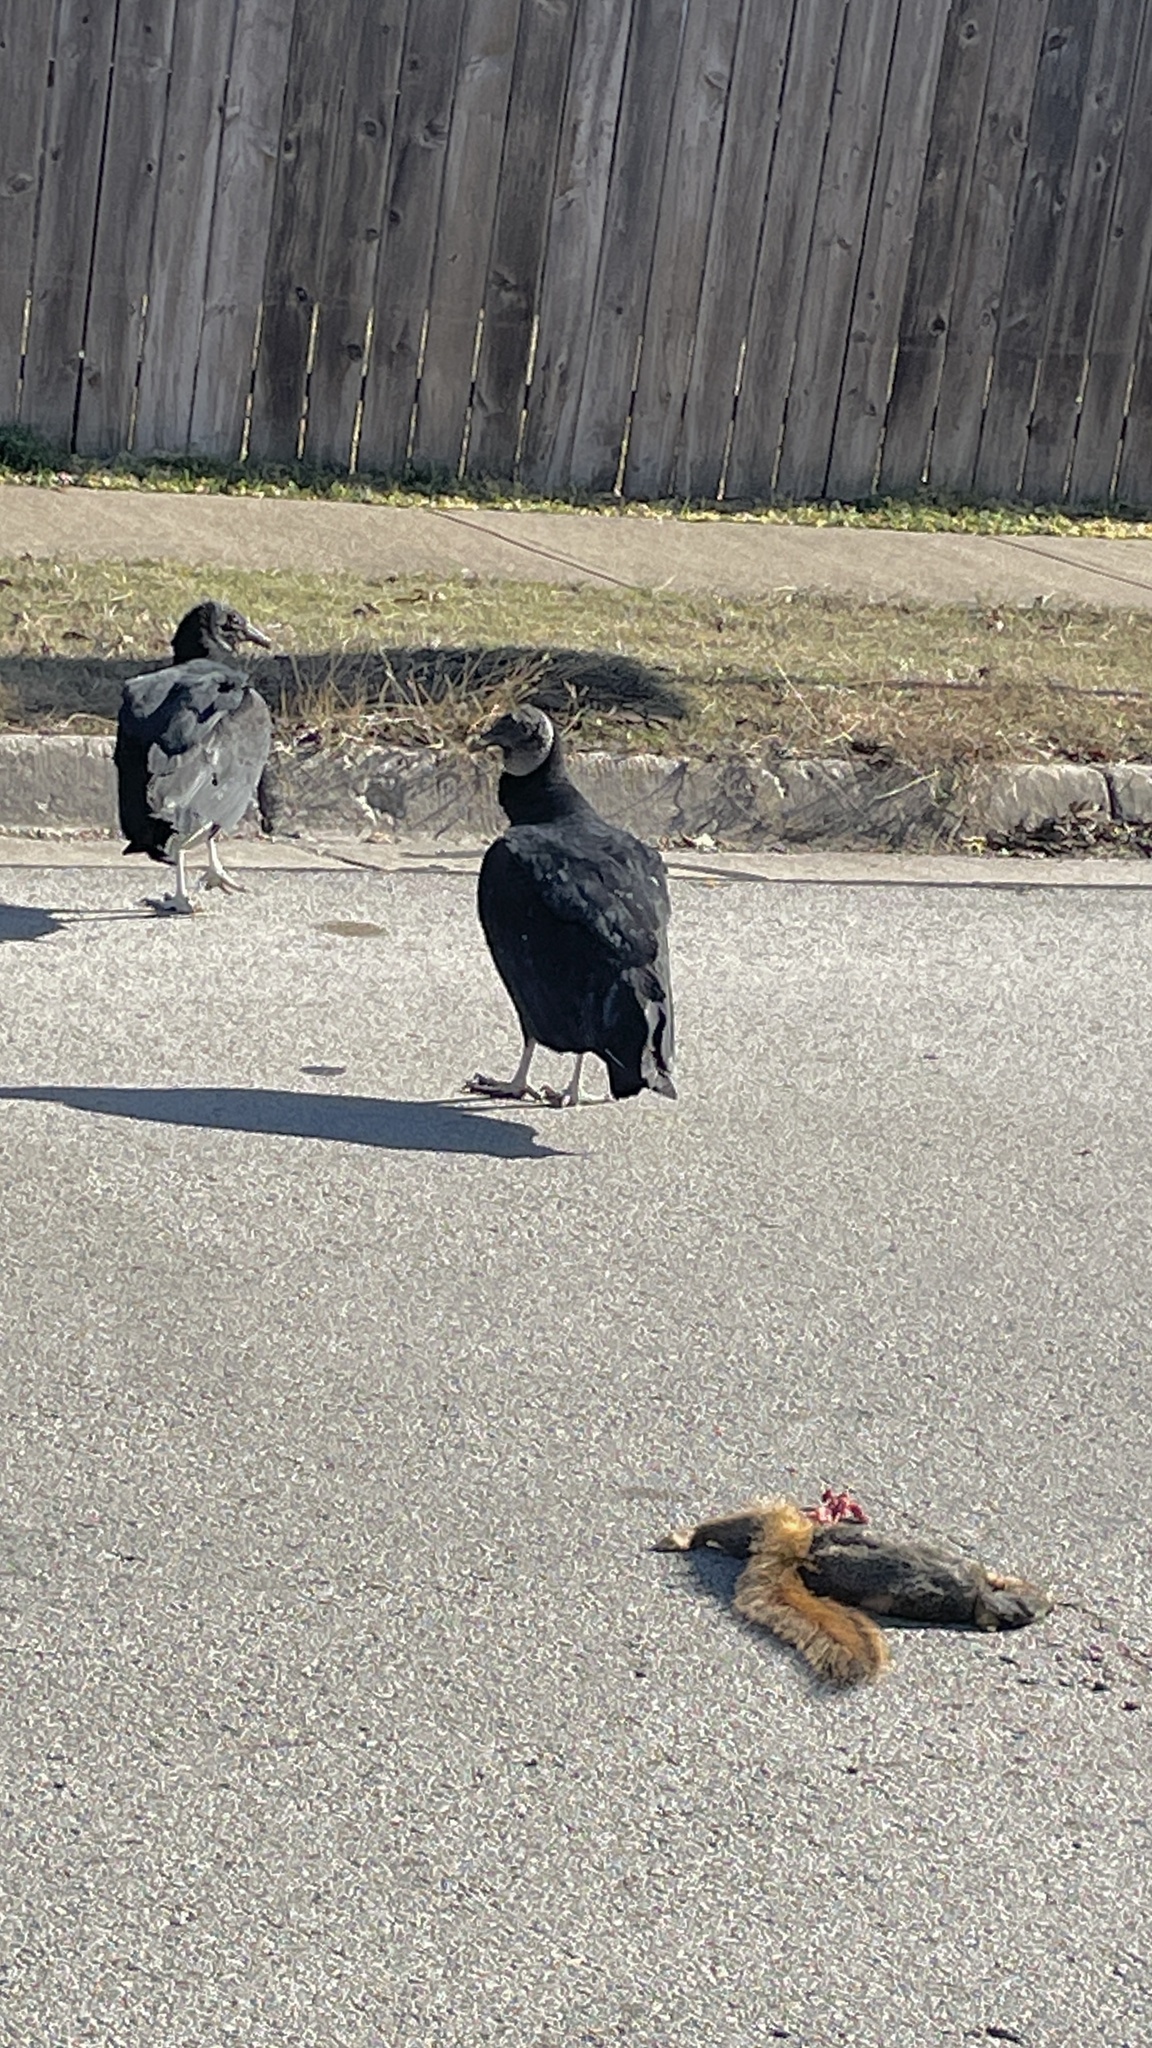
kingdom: Animalia
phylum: Chordata
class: Aves
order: Accipitriformes
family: Cathartidae
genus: Coragyps
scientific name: Coragyps atratus
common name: Black vulture
